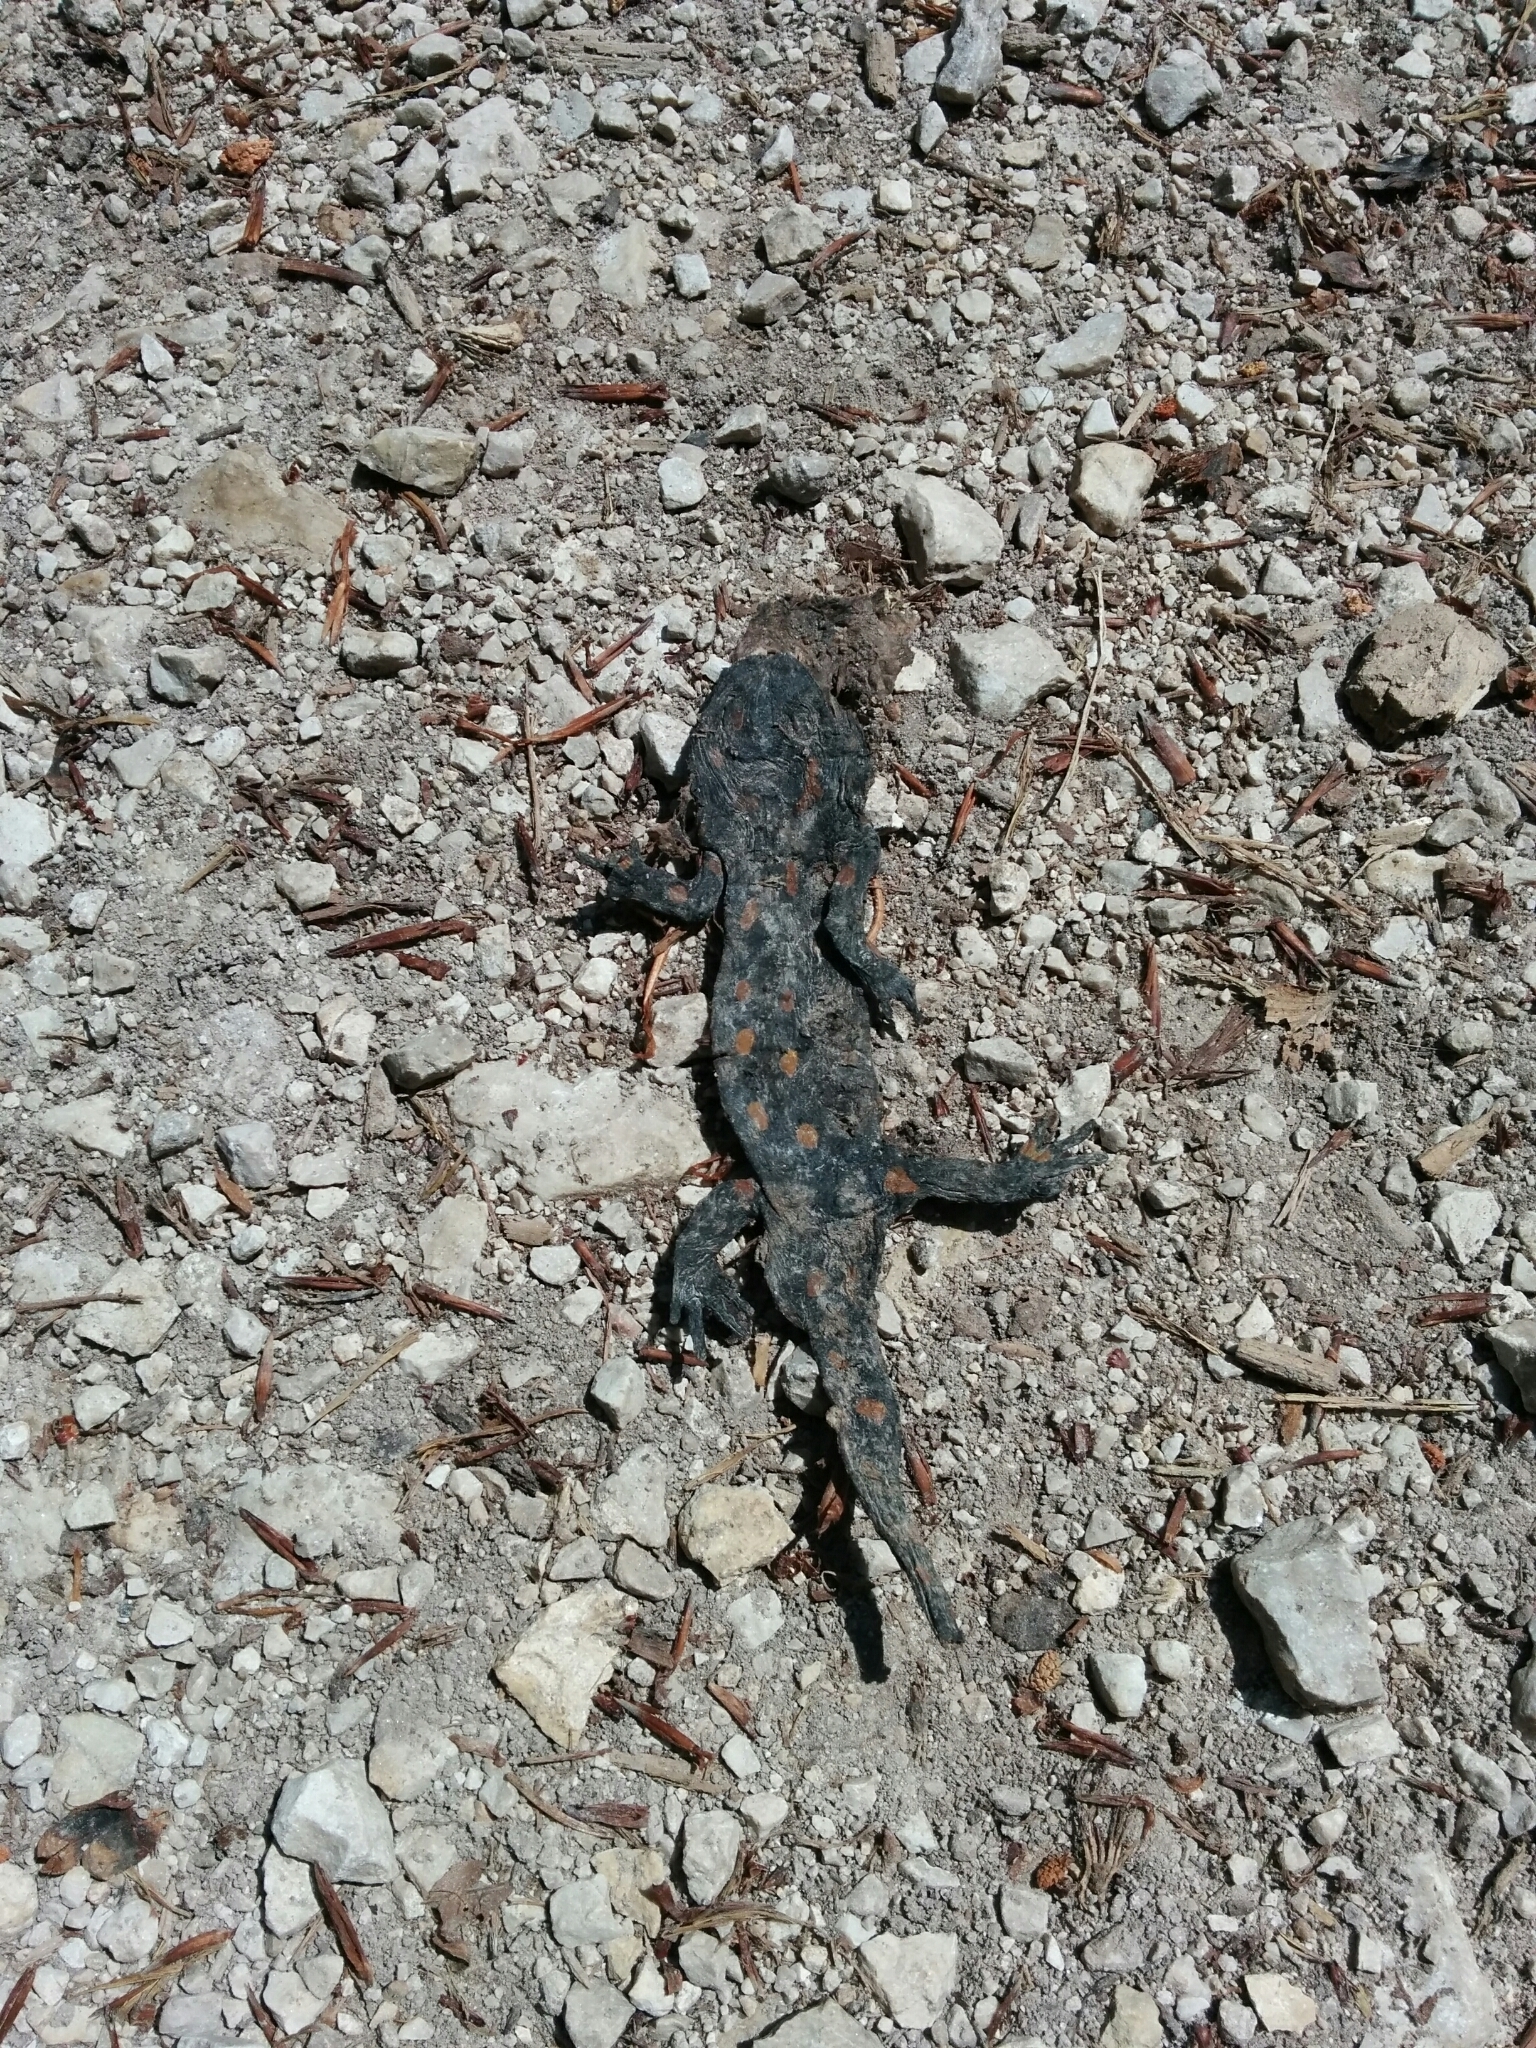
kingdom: Animalia
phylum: Chordata
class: Amphibia
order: Caudata
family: Salamandridae
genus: Salamandra
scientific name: Salamandra salamandra
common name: Fire salamander
